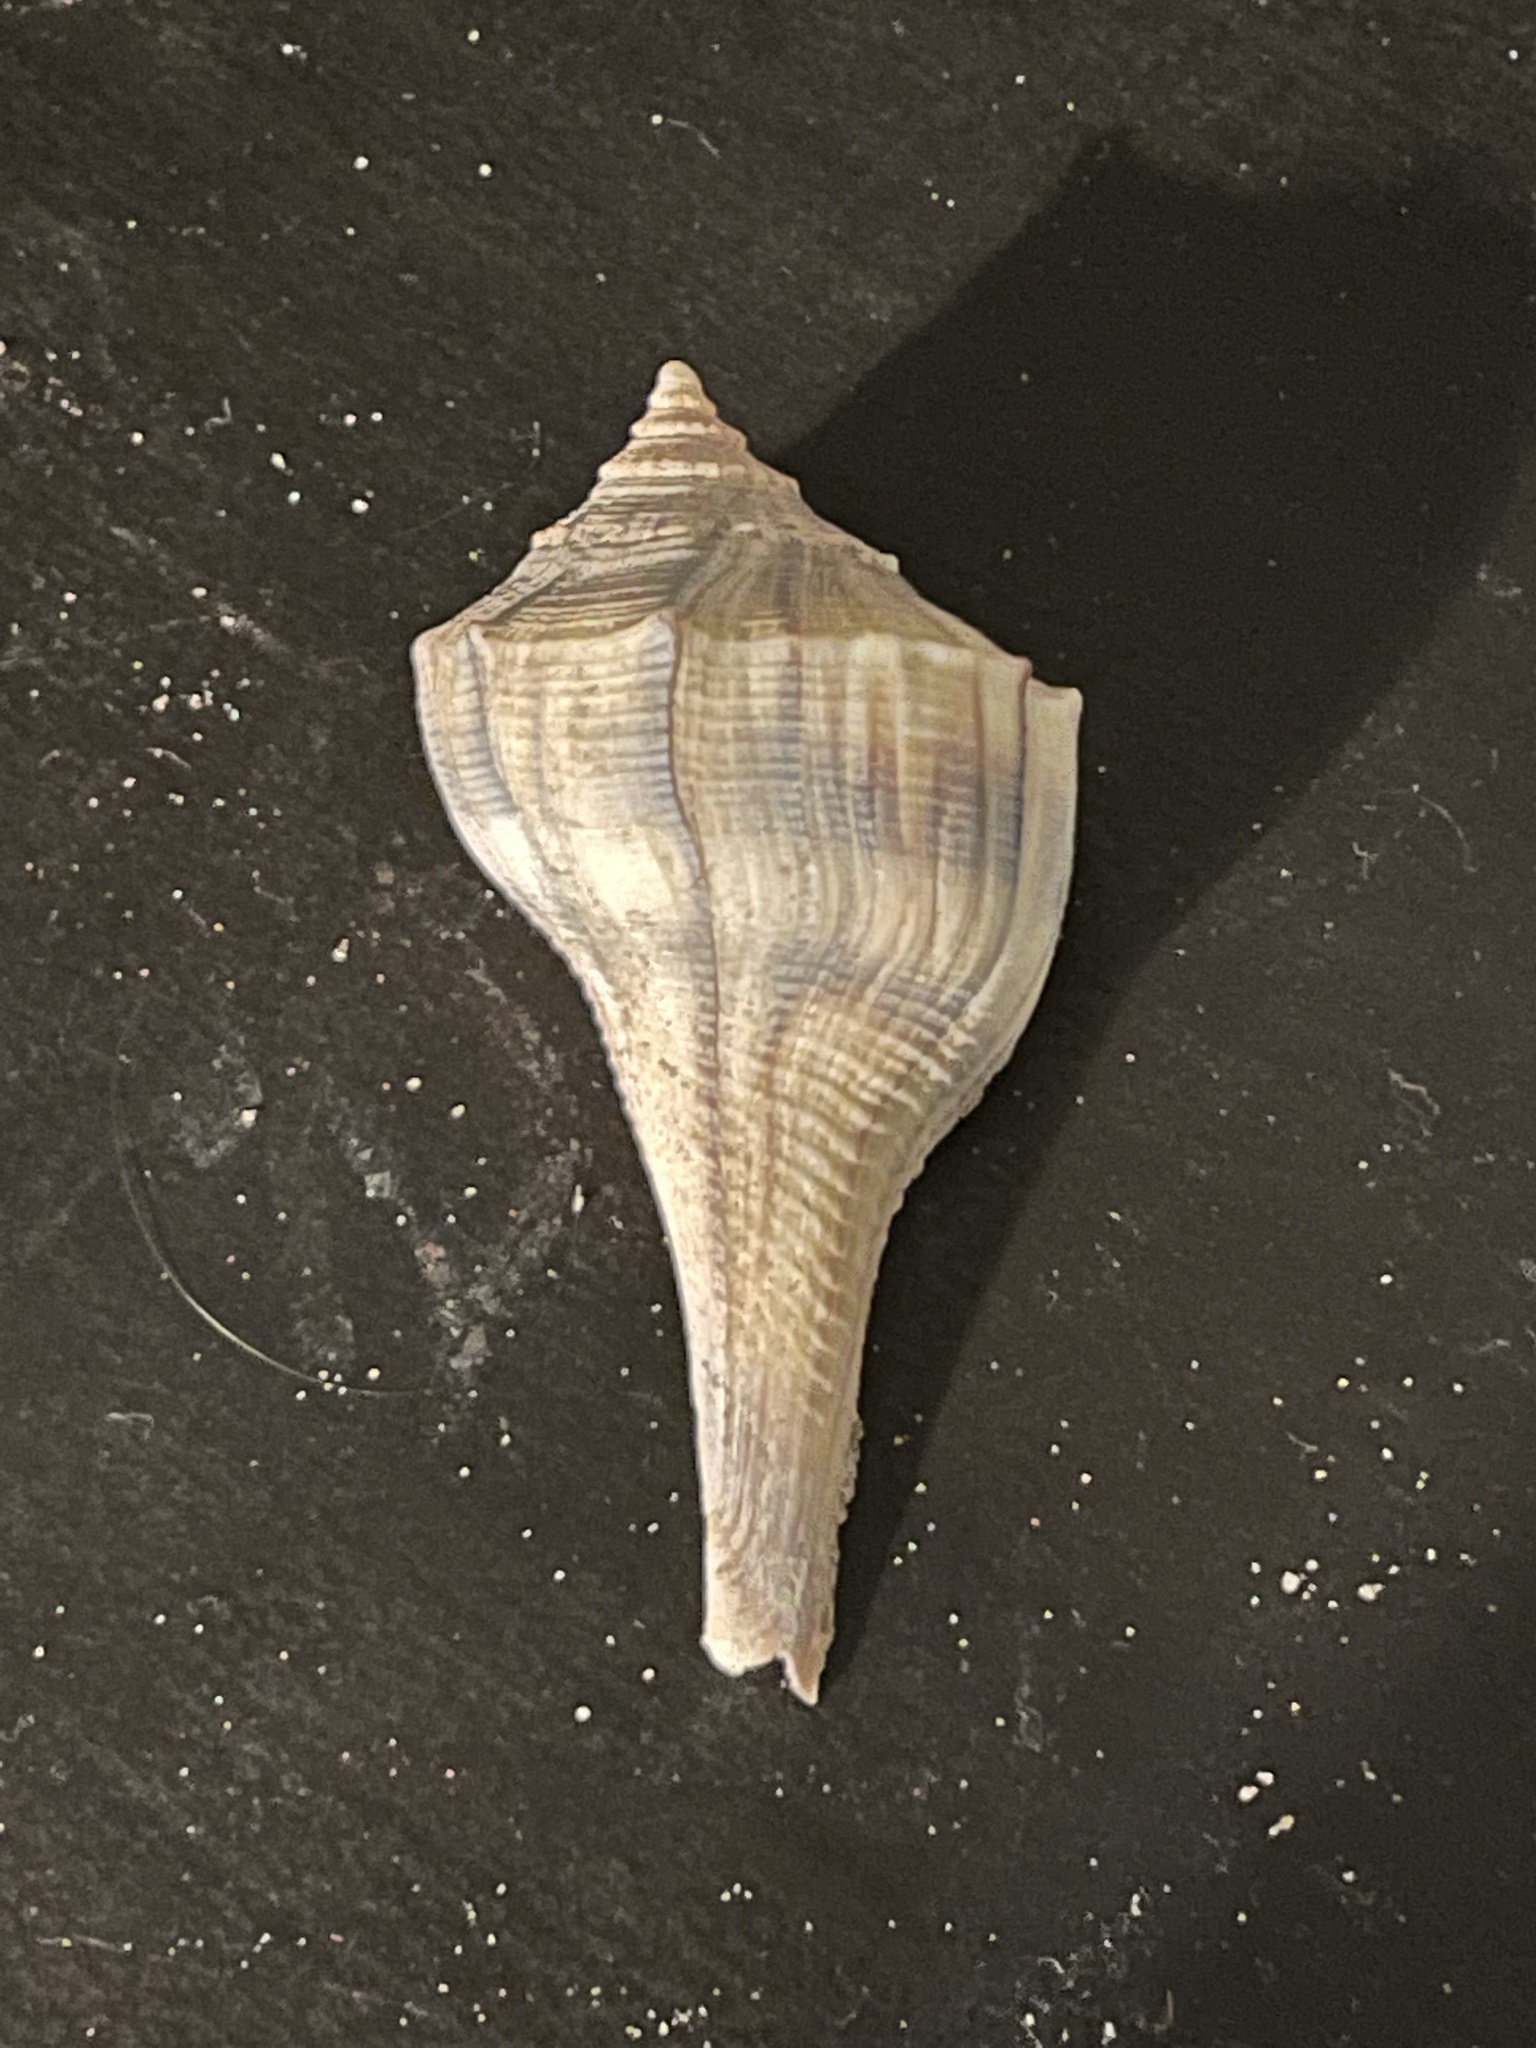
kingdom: Animalia
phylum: Mollusca
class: Gastropoda
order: Neogastropoda
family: Busyconidae
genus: Sinistrofulgur
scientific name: Sinistrofulgur pulleyi
